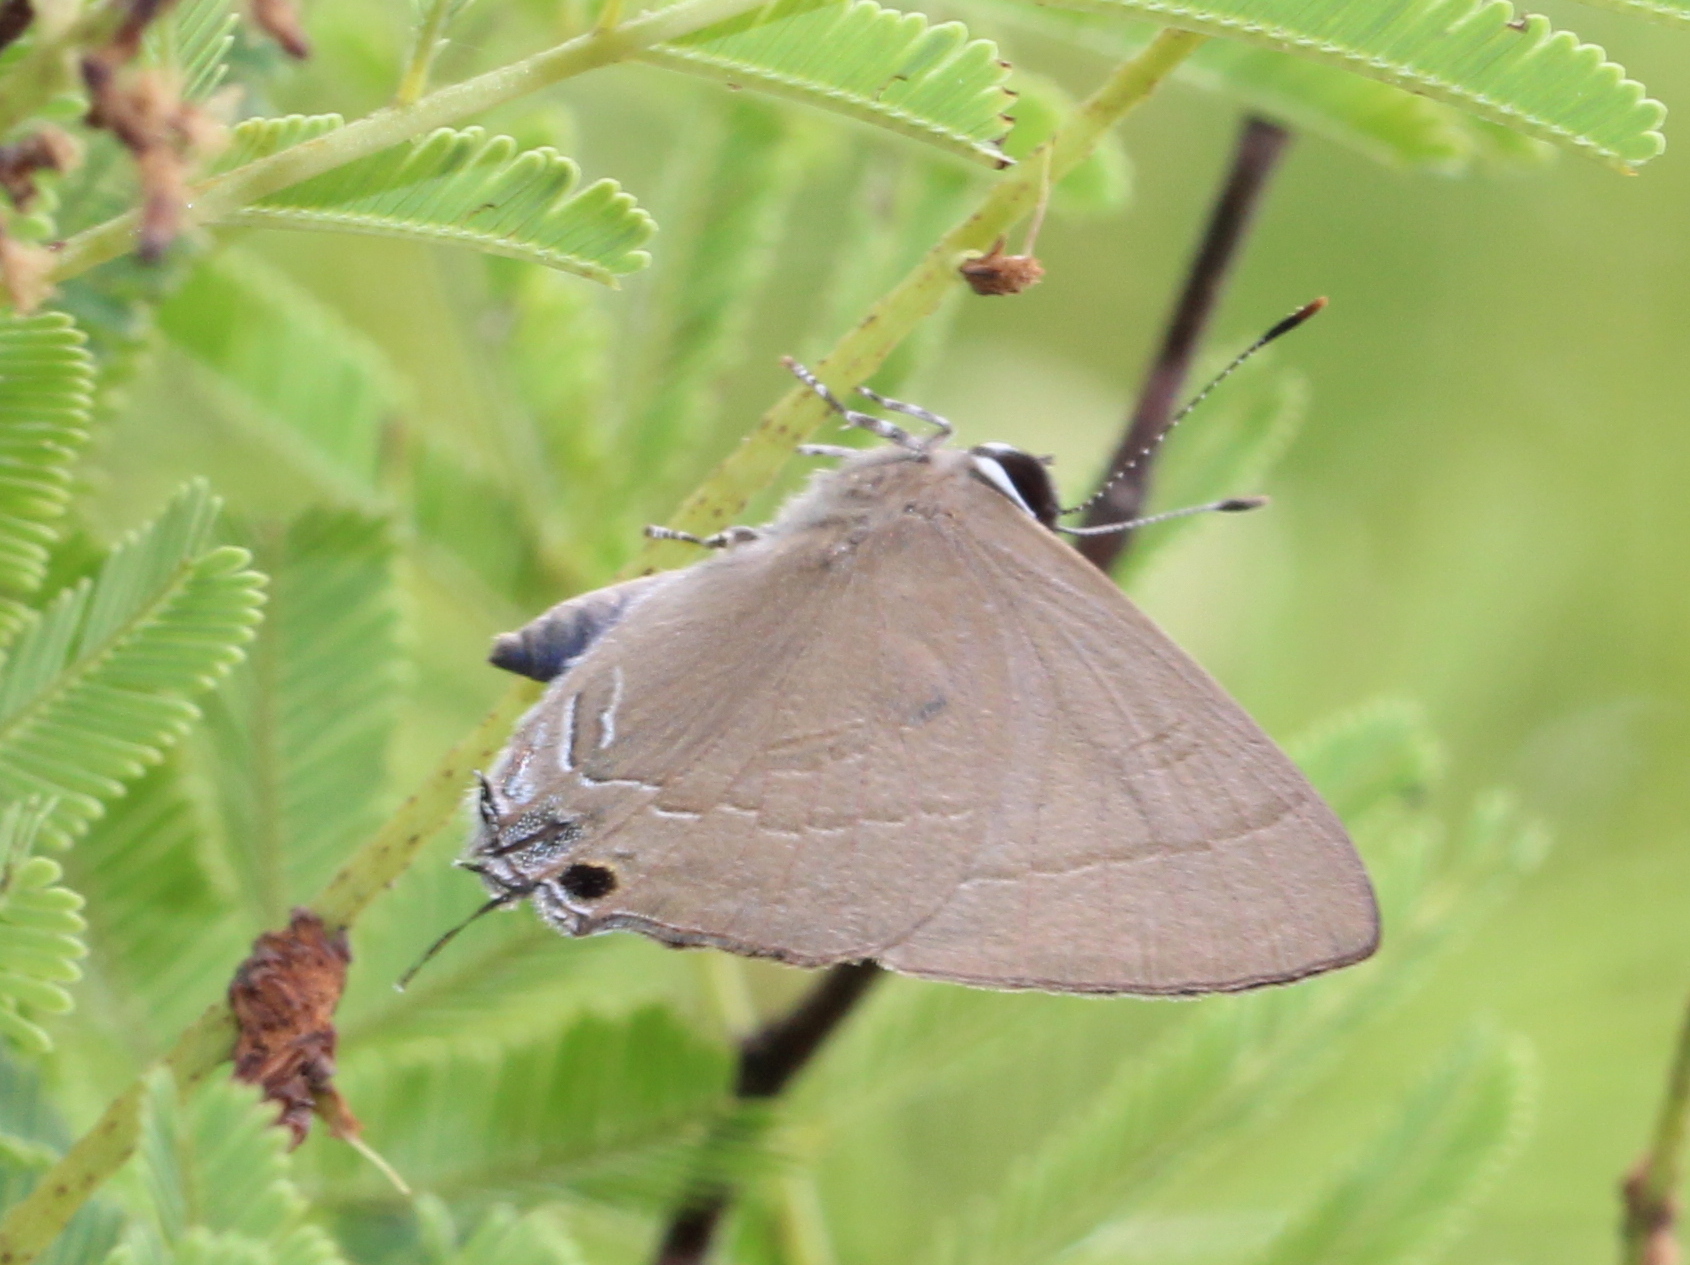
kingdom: Animalia
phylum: Arthropoda
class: Insecta
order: Lepidoptera
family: Lycaenidae
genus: Rapala
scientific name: Rapala manea
